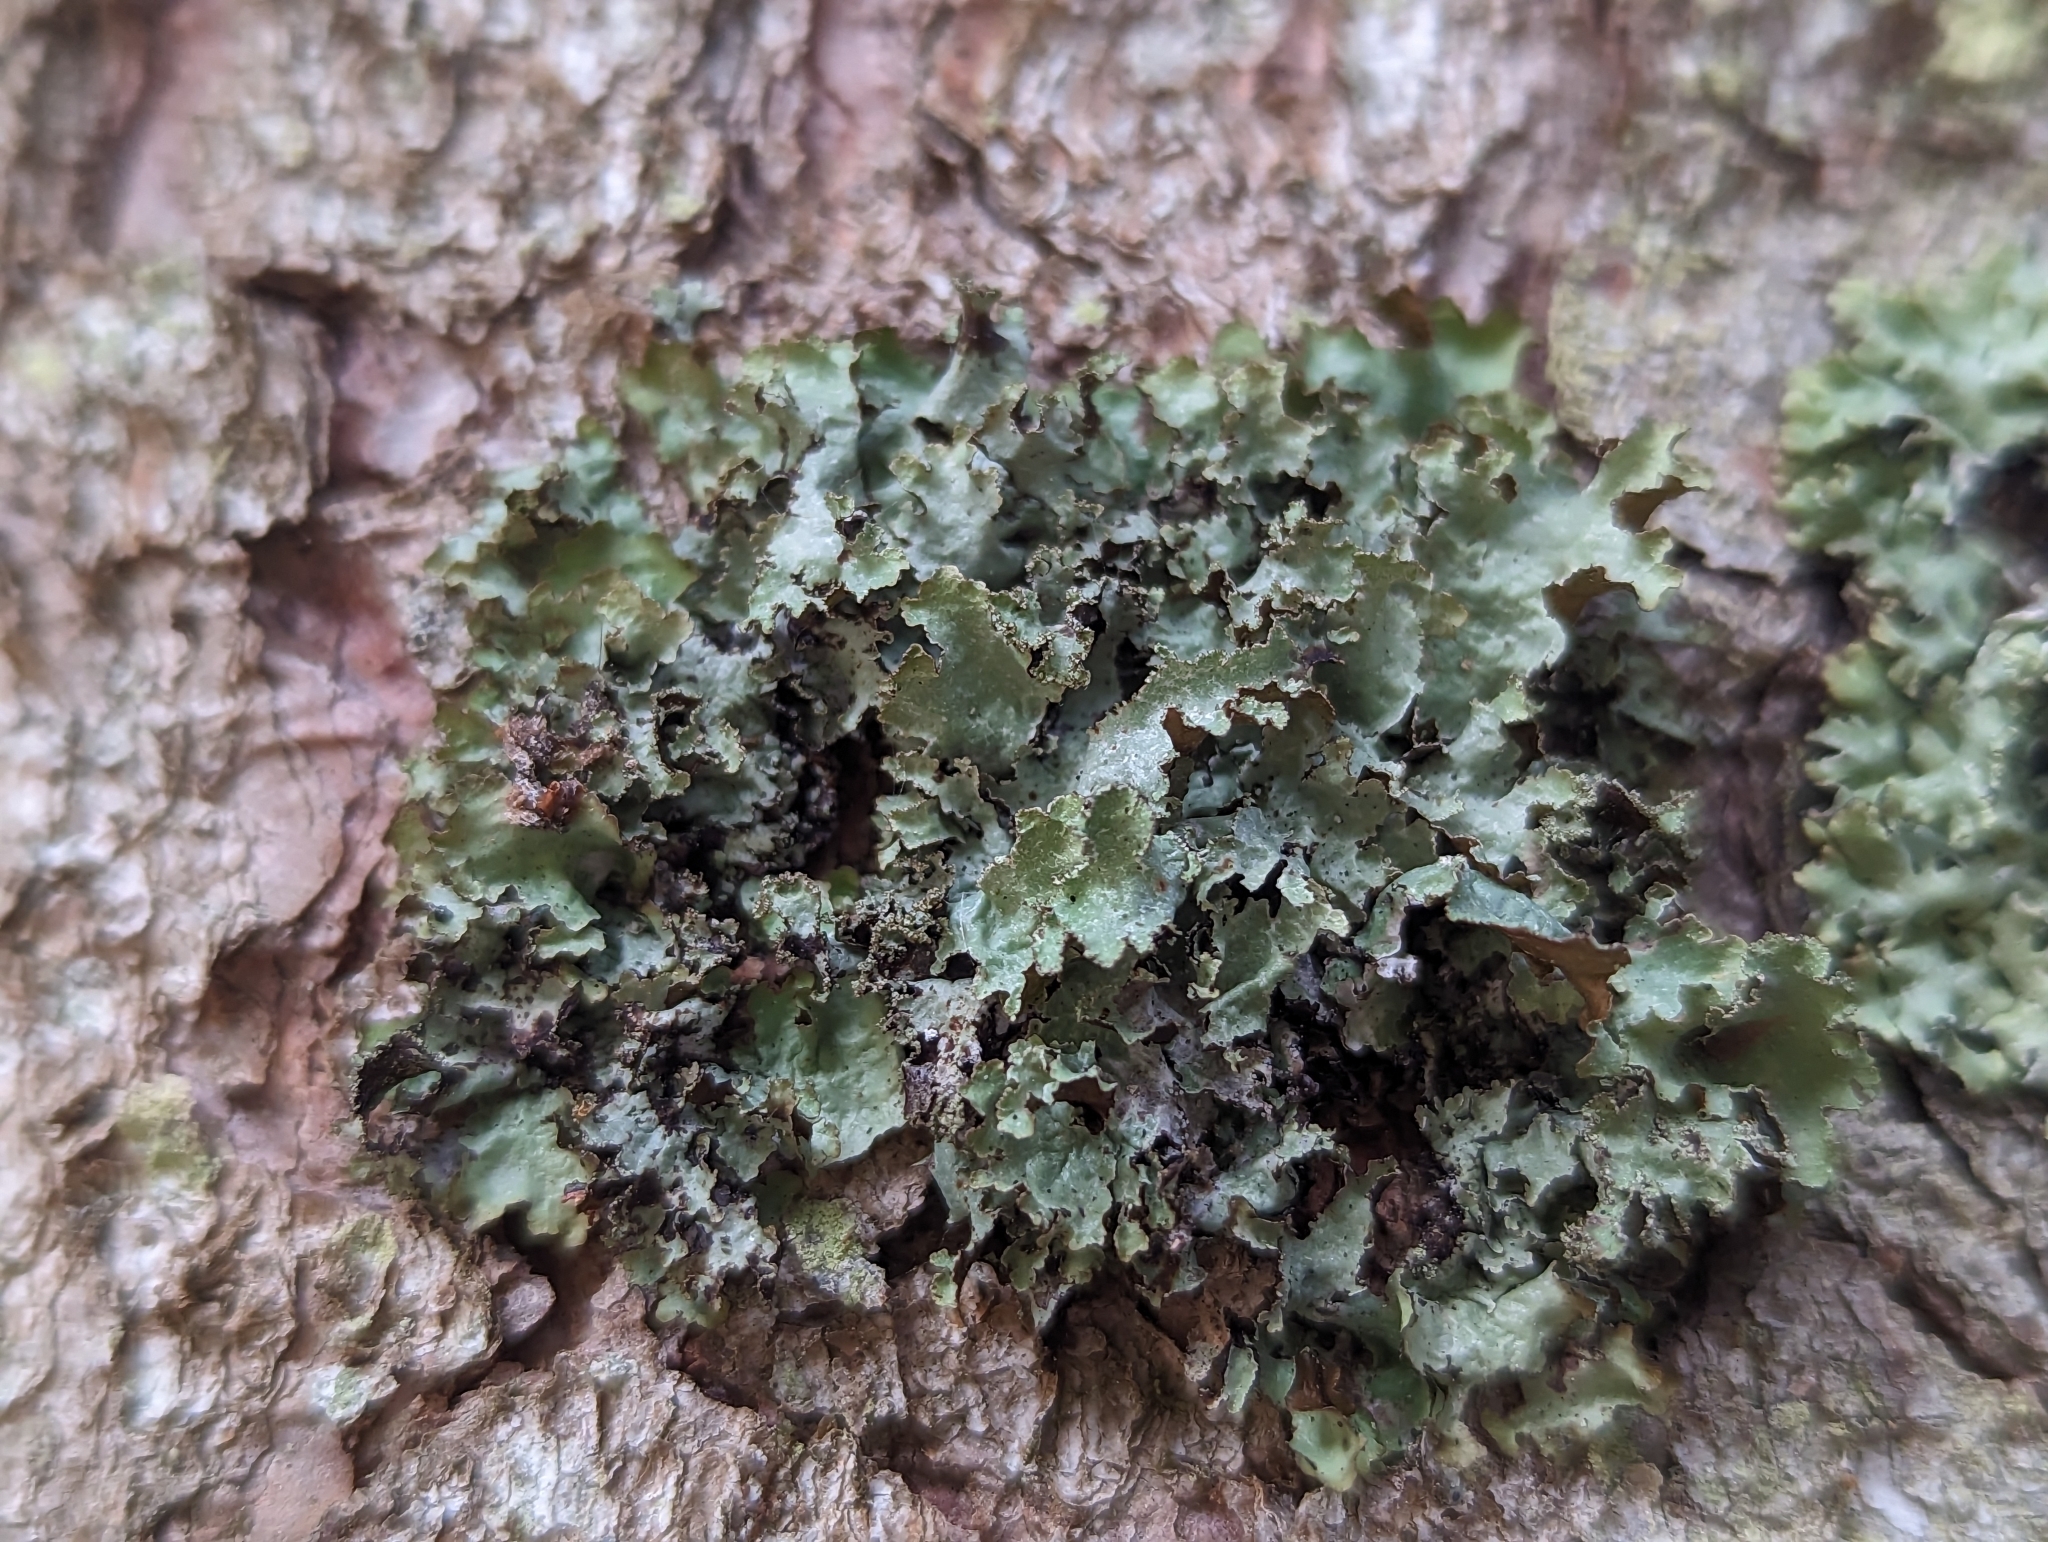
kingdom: Fungi
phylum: Ascomycota
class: Lecanoromycetes
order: Lecanorales
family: Parmeliaceae
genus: Platismatia
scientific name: Platismatia glauca
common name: Varied rag lichen
